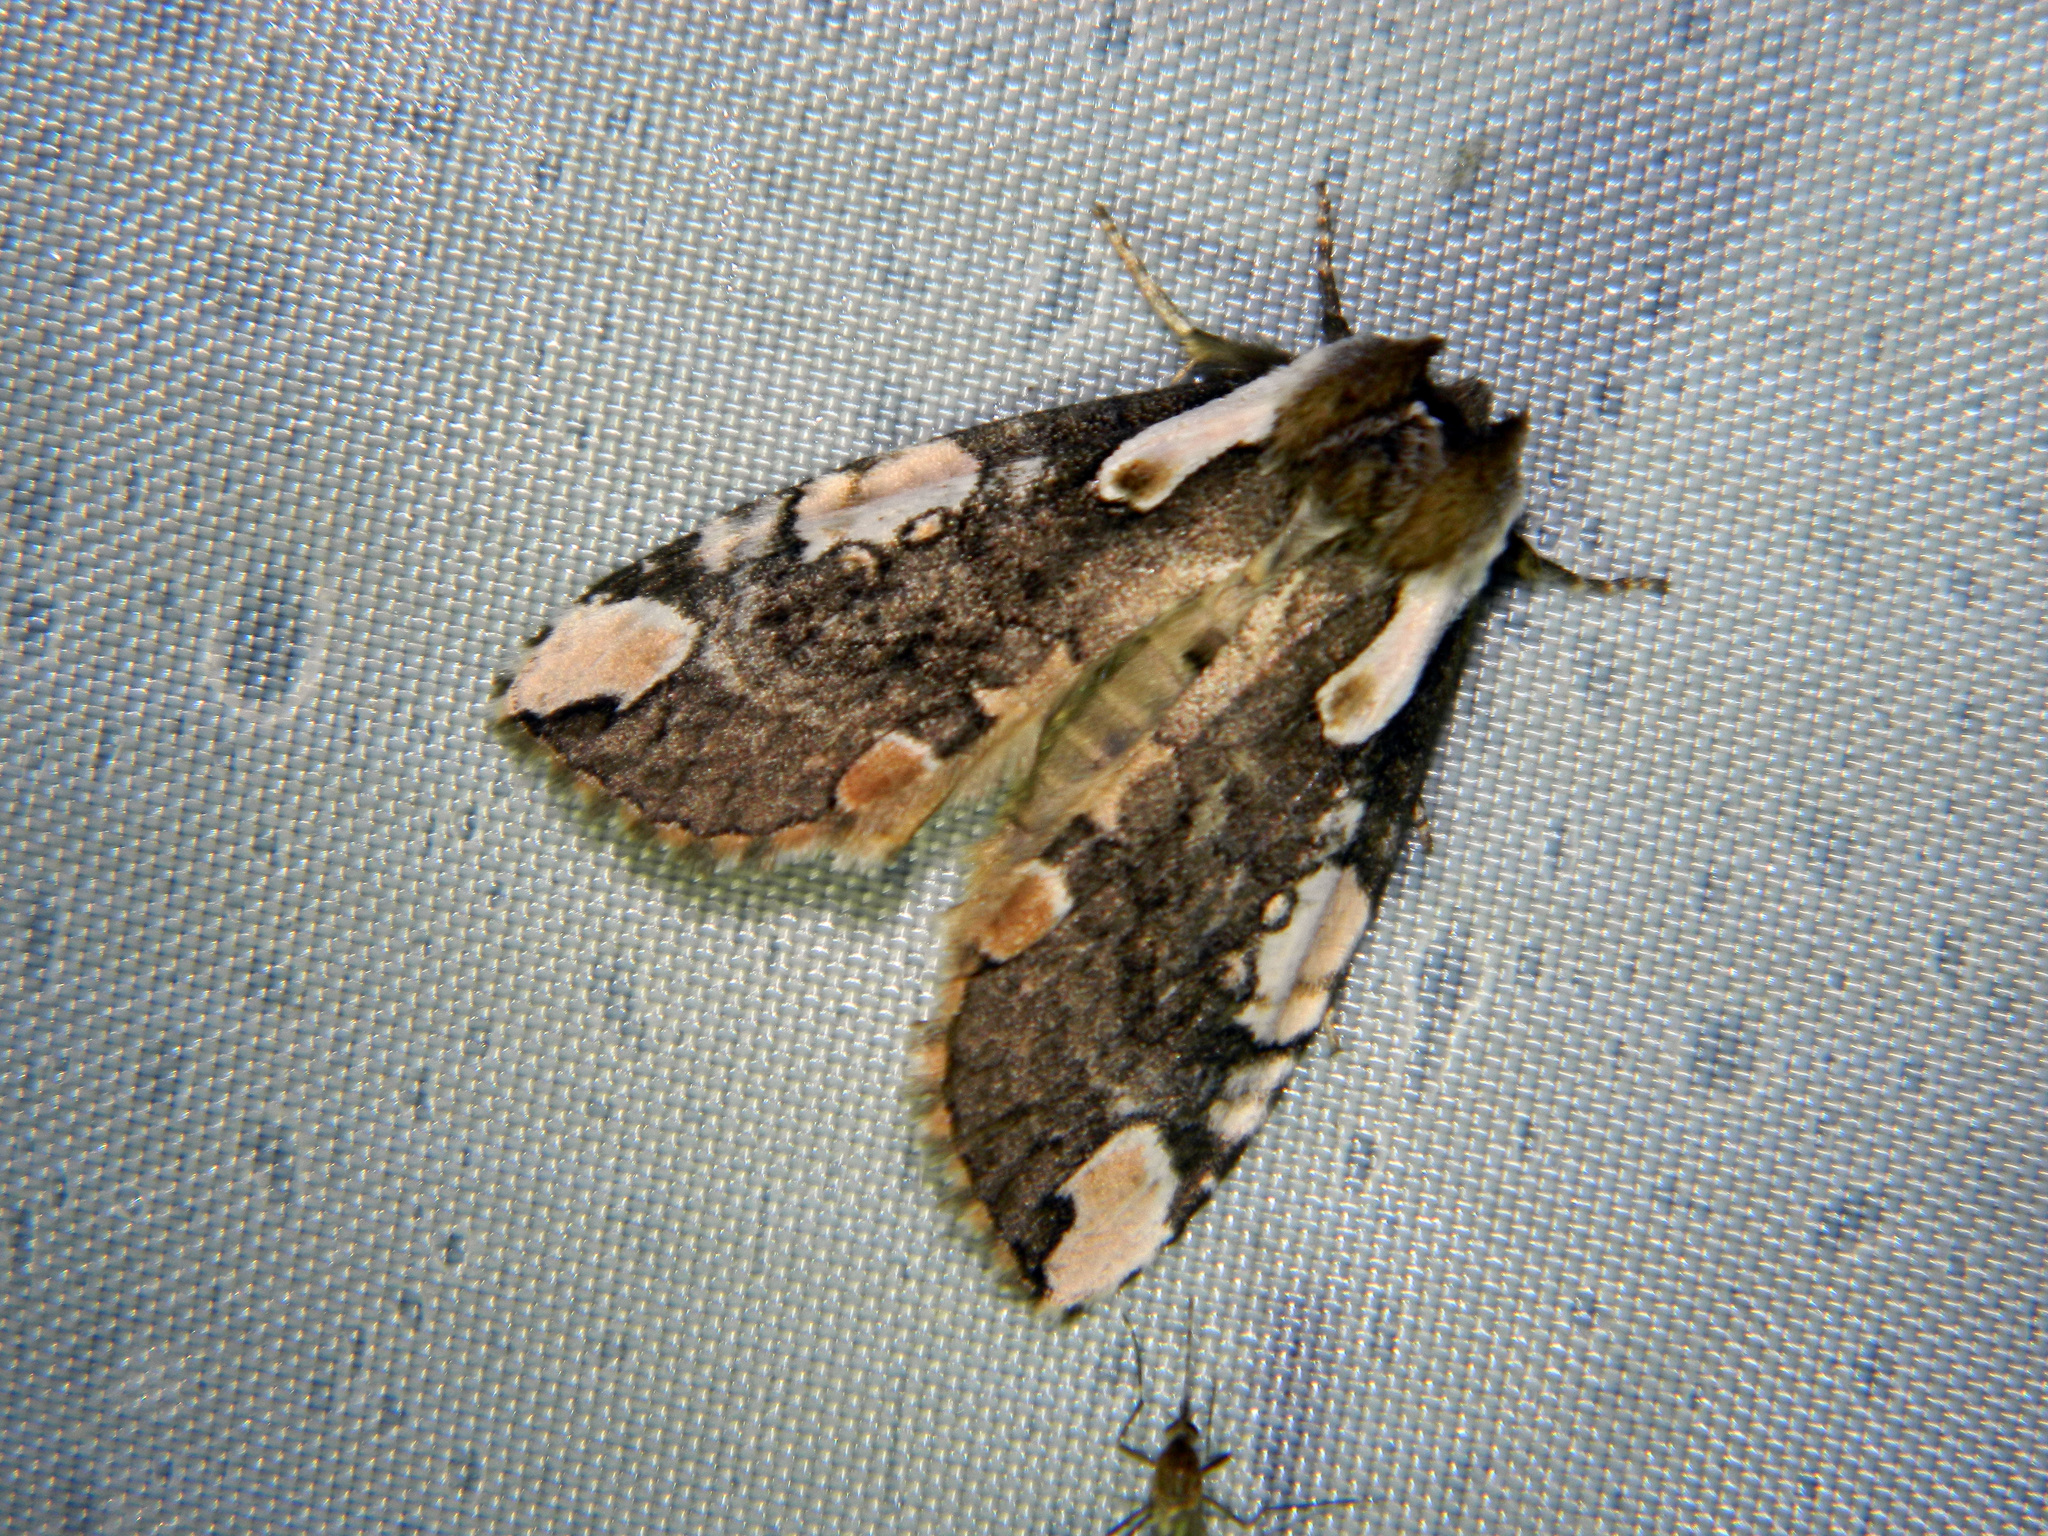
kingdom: Animalia
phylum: Arthropoda
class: Insecta
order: Lepidoptera
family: Drepanidae
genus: Euthyatira
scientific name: Euthyatira pudens
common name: Dogwood thyatirid moth
